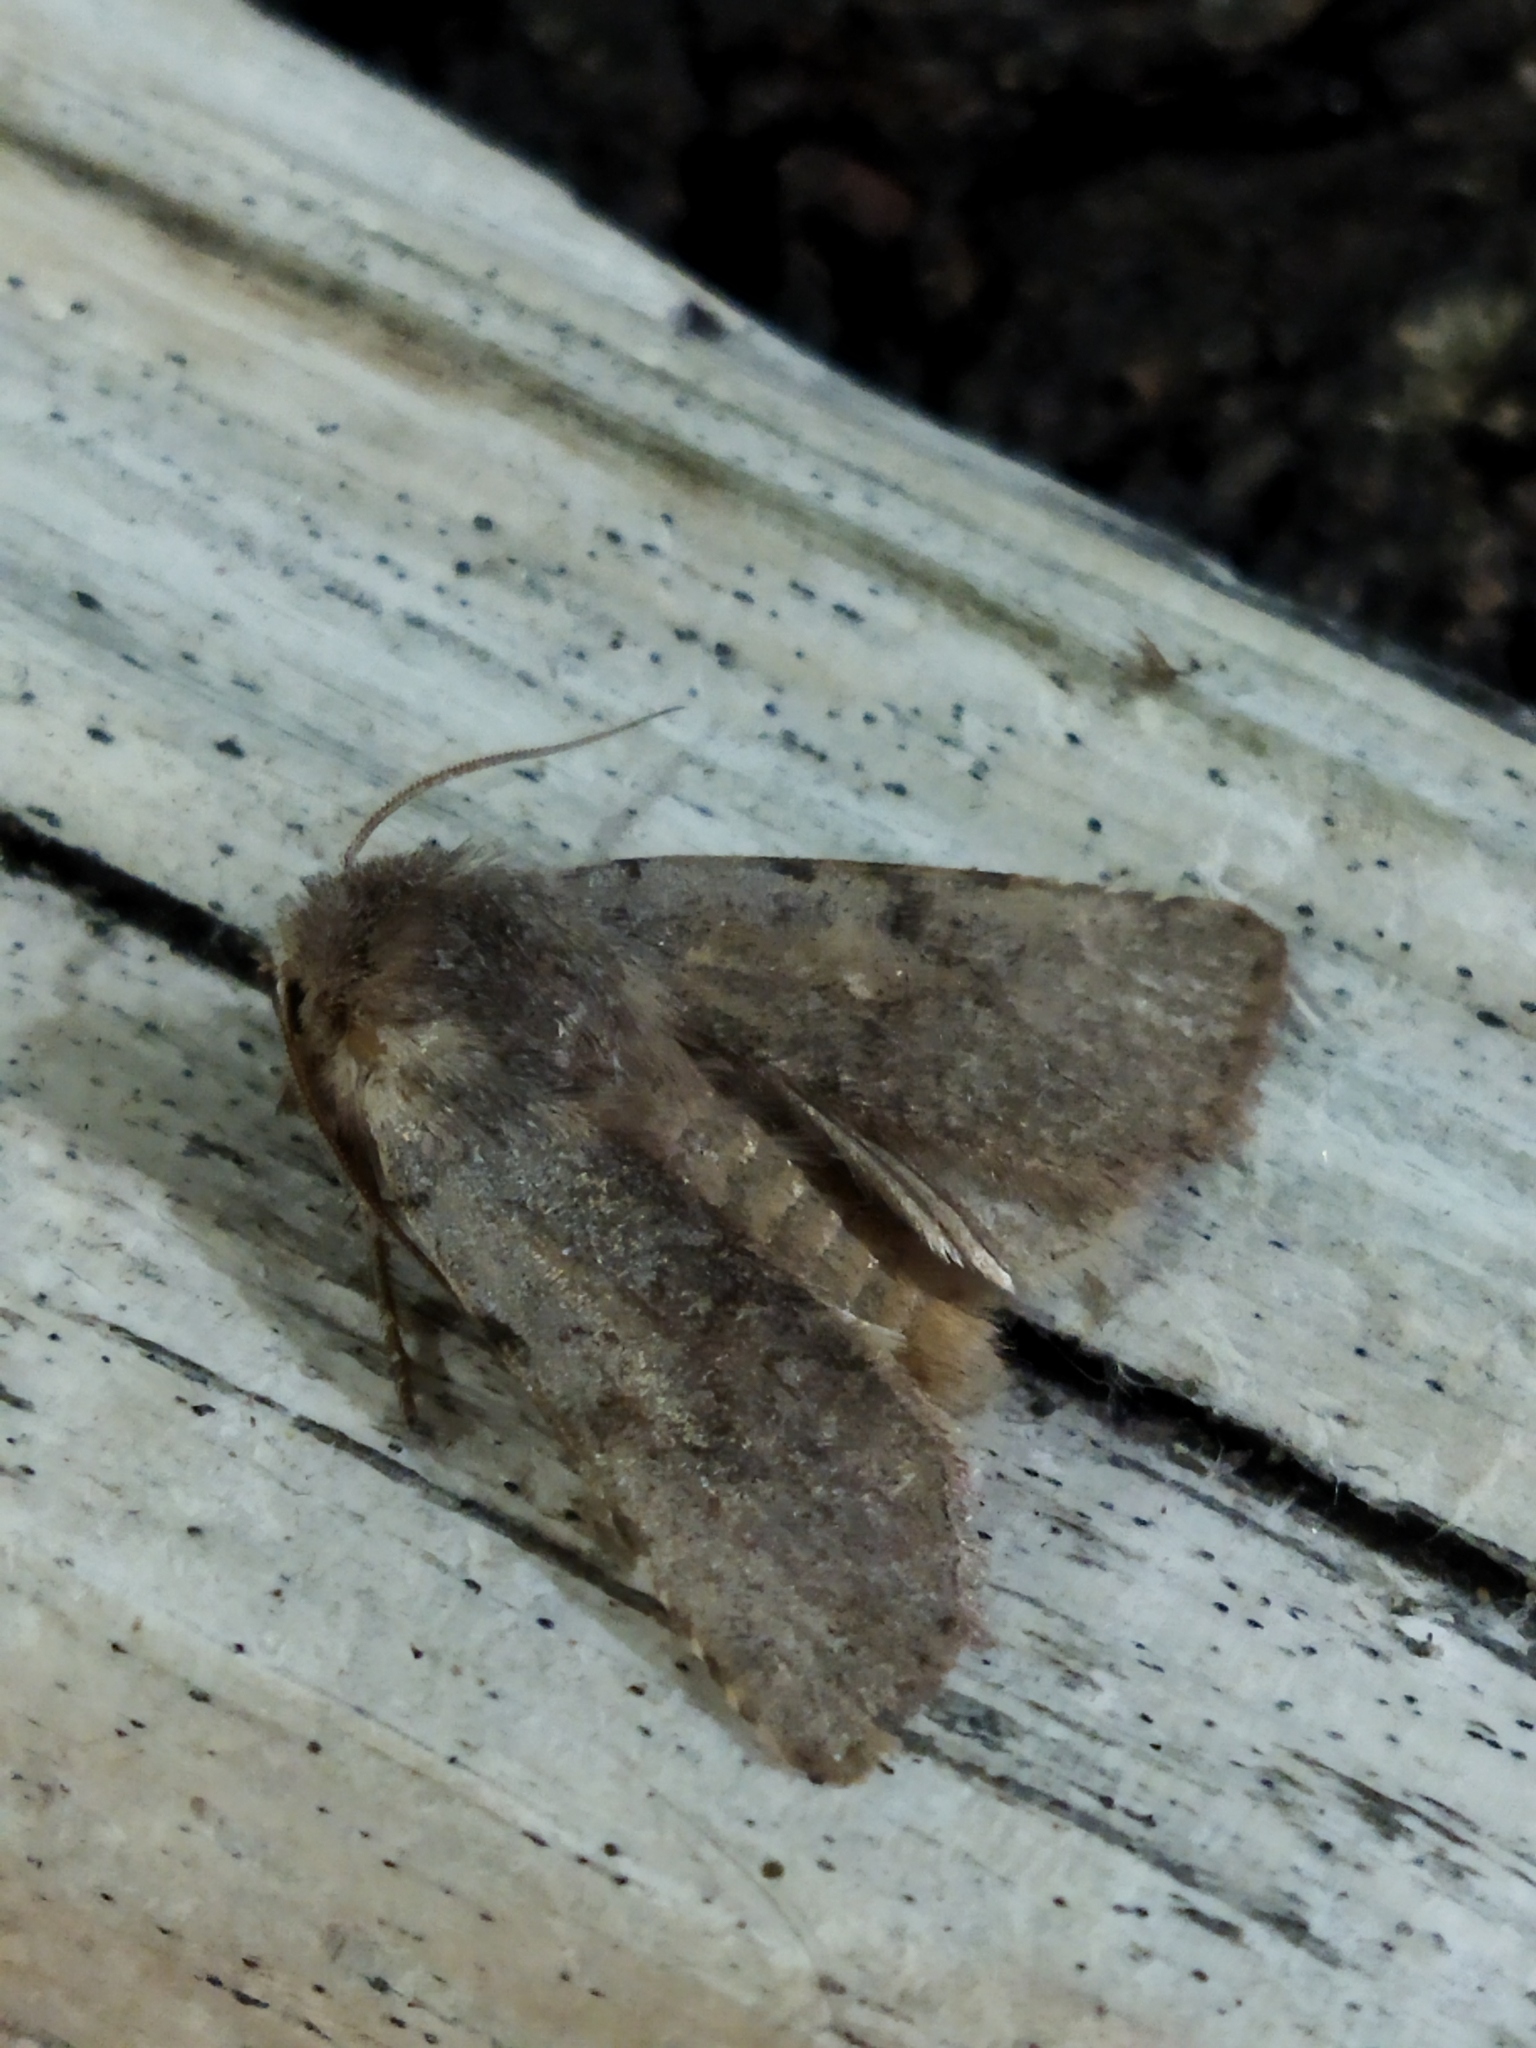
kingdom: Animalia
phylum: Arthropoda
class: Insecta
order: Lepidoptera
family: Noctuidae
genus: Cerastis
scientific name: Cerastis rubricosa
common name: Red chestnut
